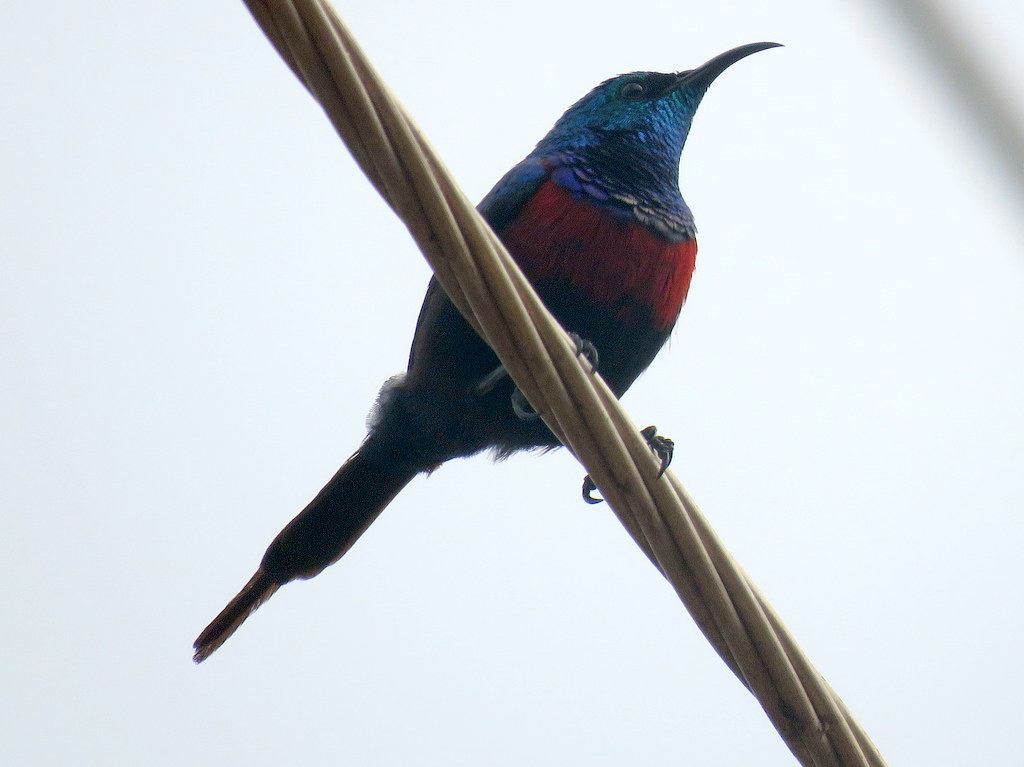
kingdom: Animalia
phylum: Chordata
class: Aves
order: Passeriformes
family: Nectariniidae
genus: Cinnyris
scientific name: Cinnyris erythrocercus
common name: Red-chested sunbird
